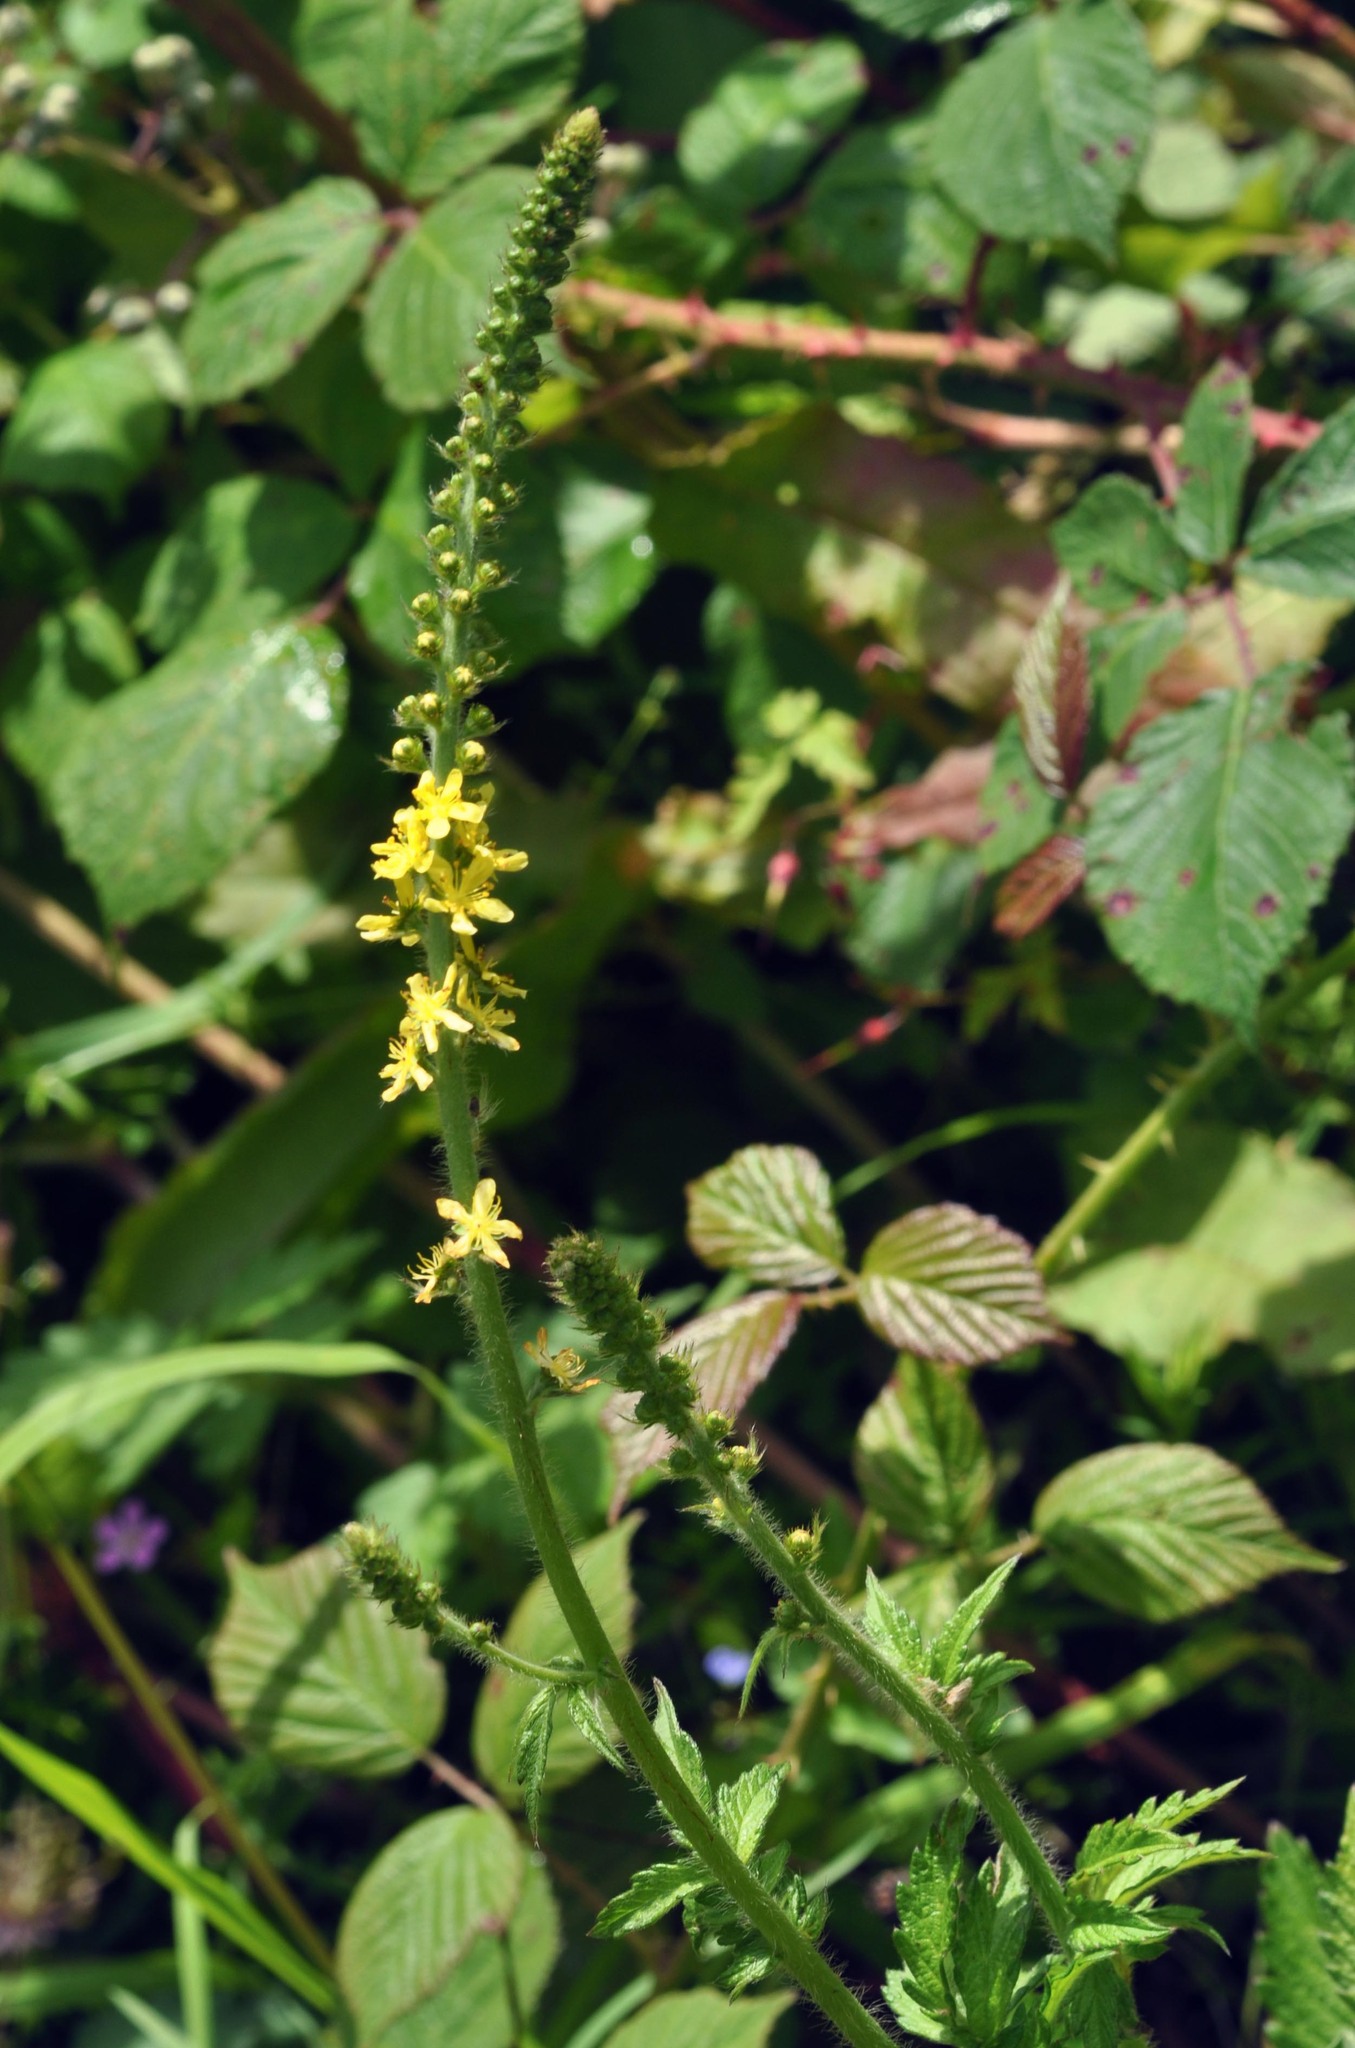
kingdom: Plantae
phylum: Tracheophyta
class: Magnoliopsida
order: Rosales
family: Rosaceae
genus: Agrimonia
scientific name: Agrimonia eupatoria
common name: Agrimony
